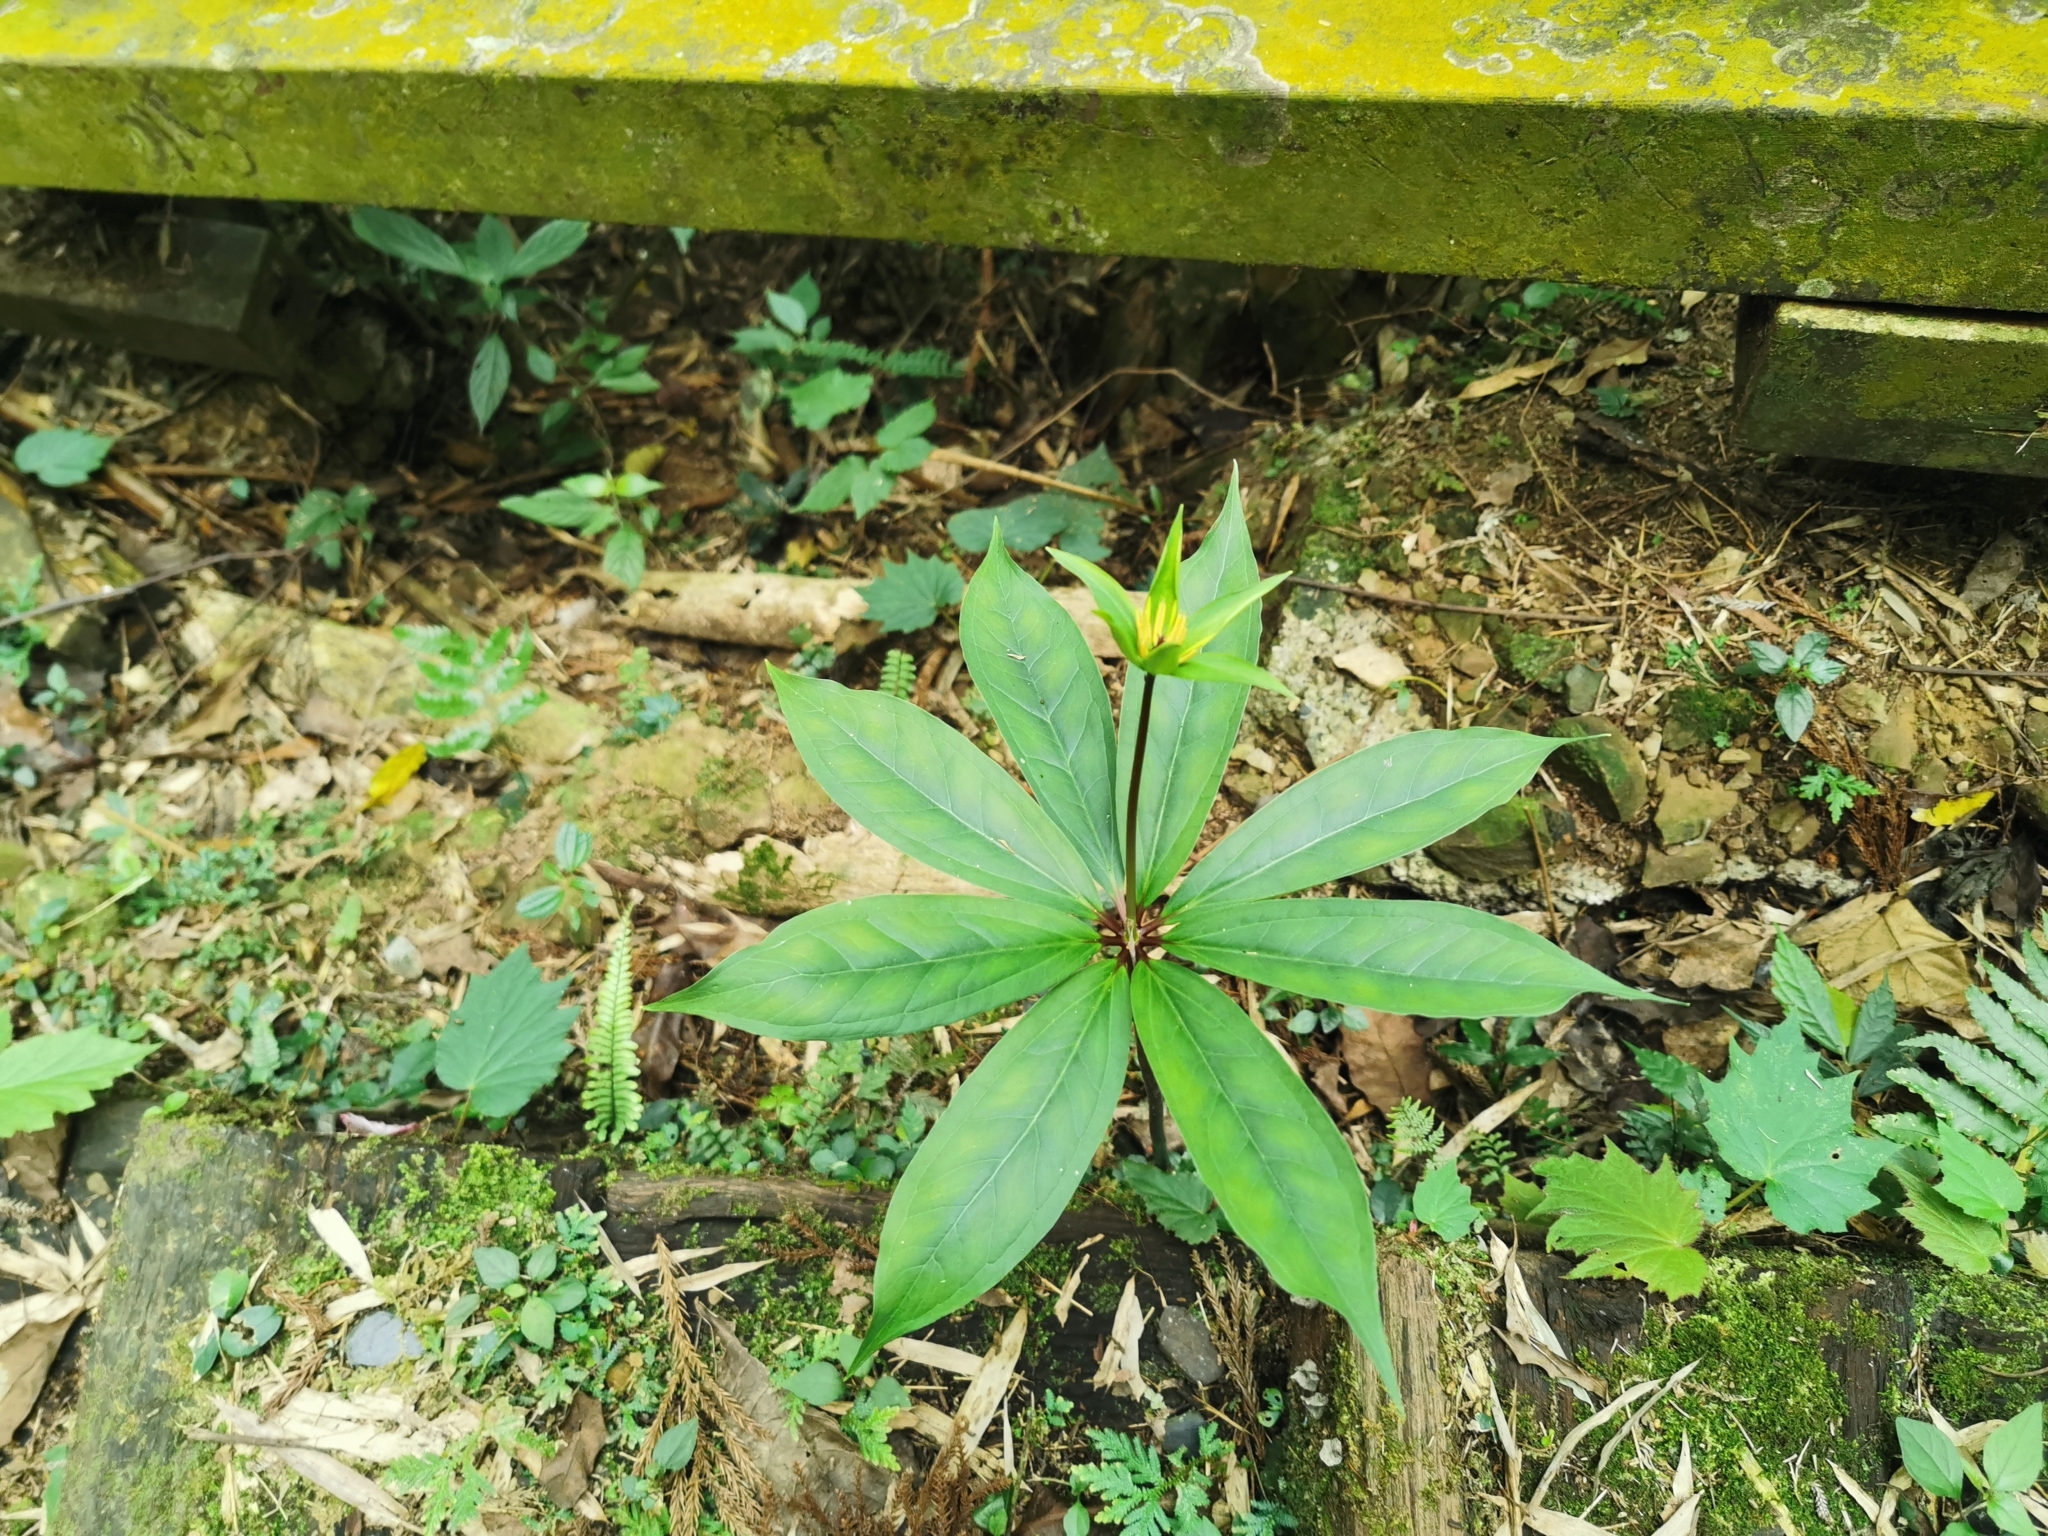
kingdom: Plantae
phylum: Tracheophyta
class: Liliopsida
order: Liliales
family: Melanthiaceae
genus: Paris
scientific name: Paris polyphylla
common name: Love apple
